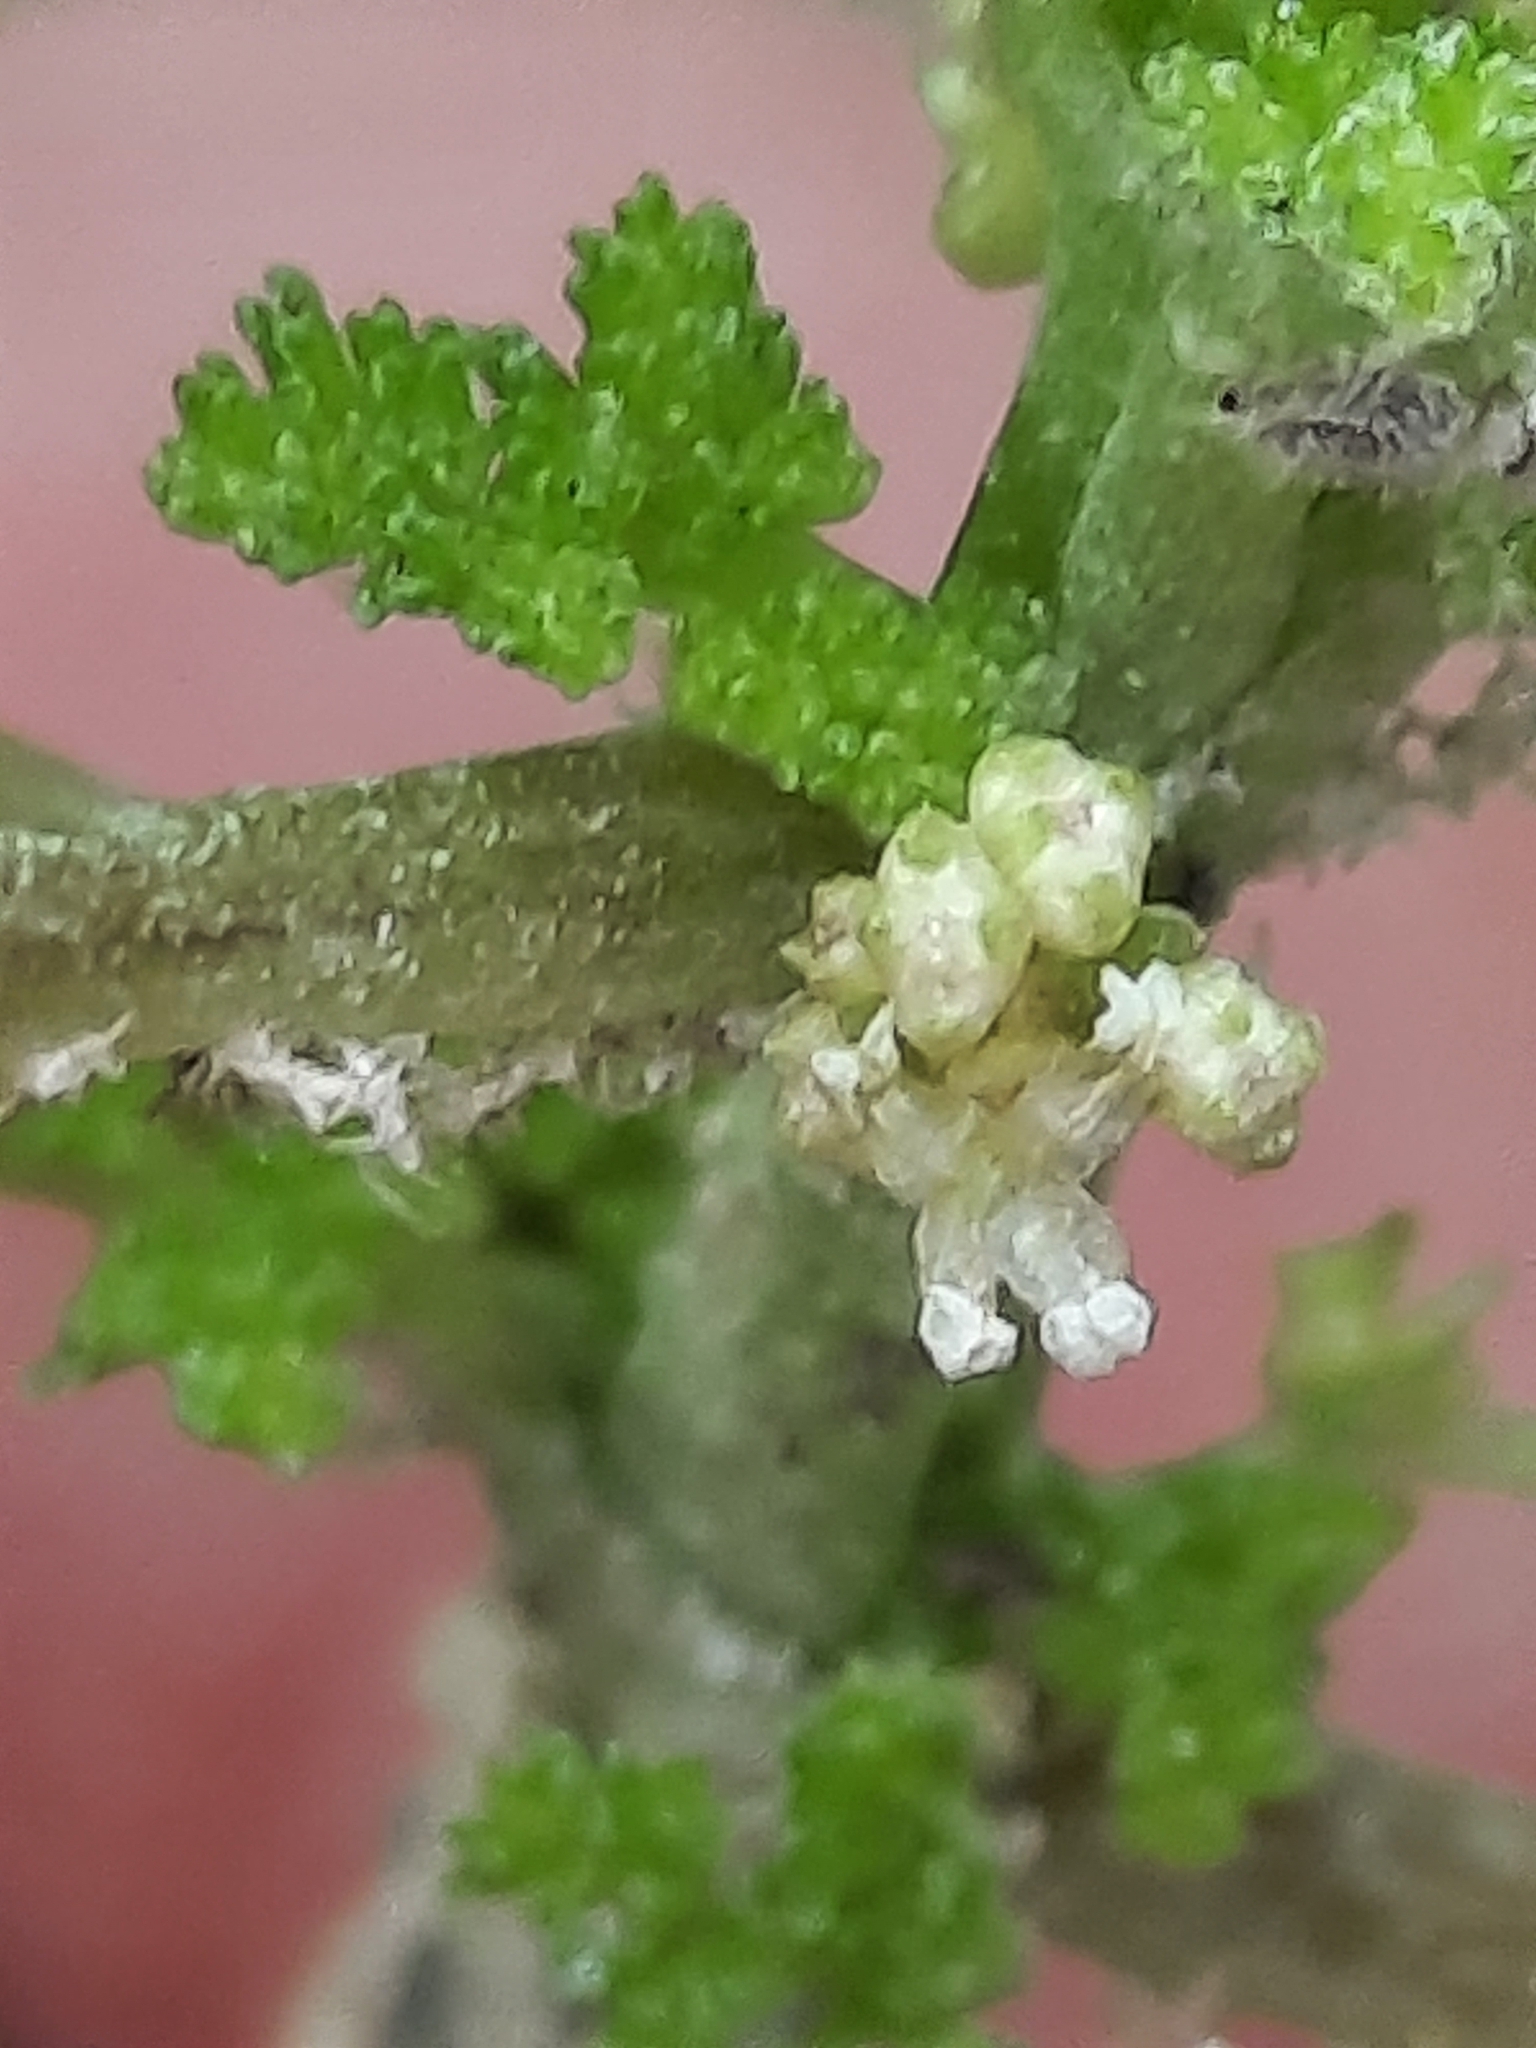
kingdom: Plantae
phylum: Tracheophyta
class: Magnoliopsida
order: Rosales
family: Urticaceae
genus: Pilea
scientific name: Pilea pumila
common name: Clearweed
